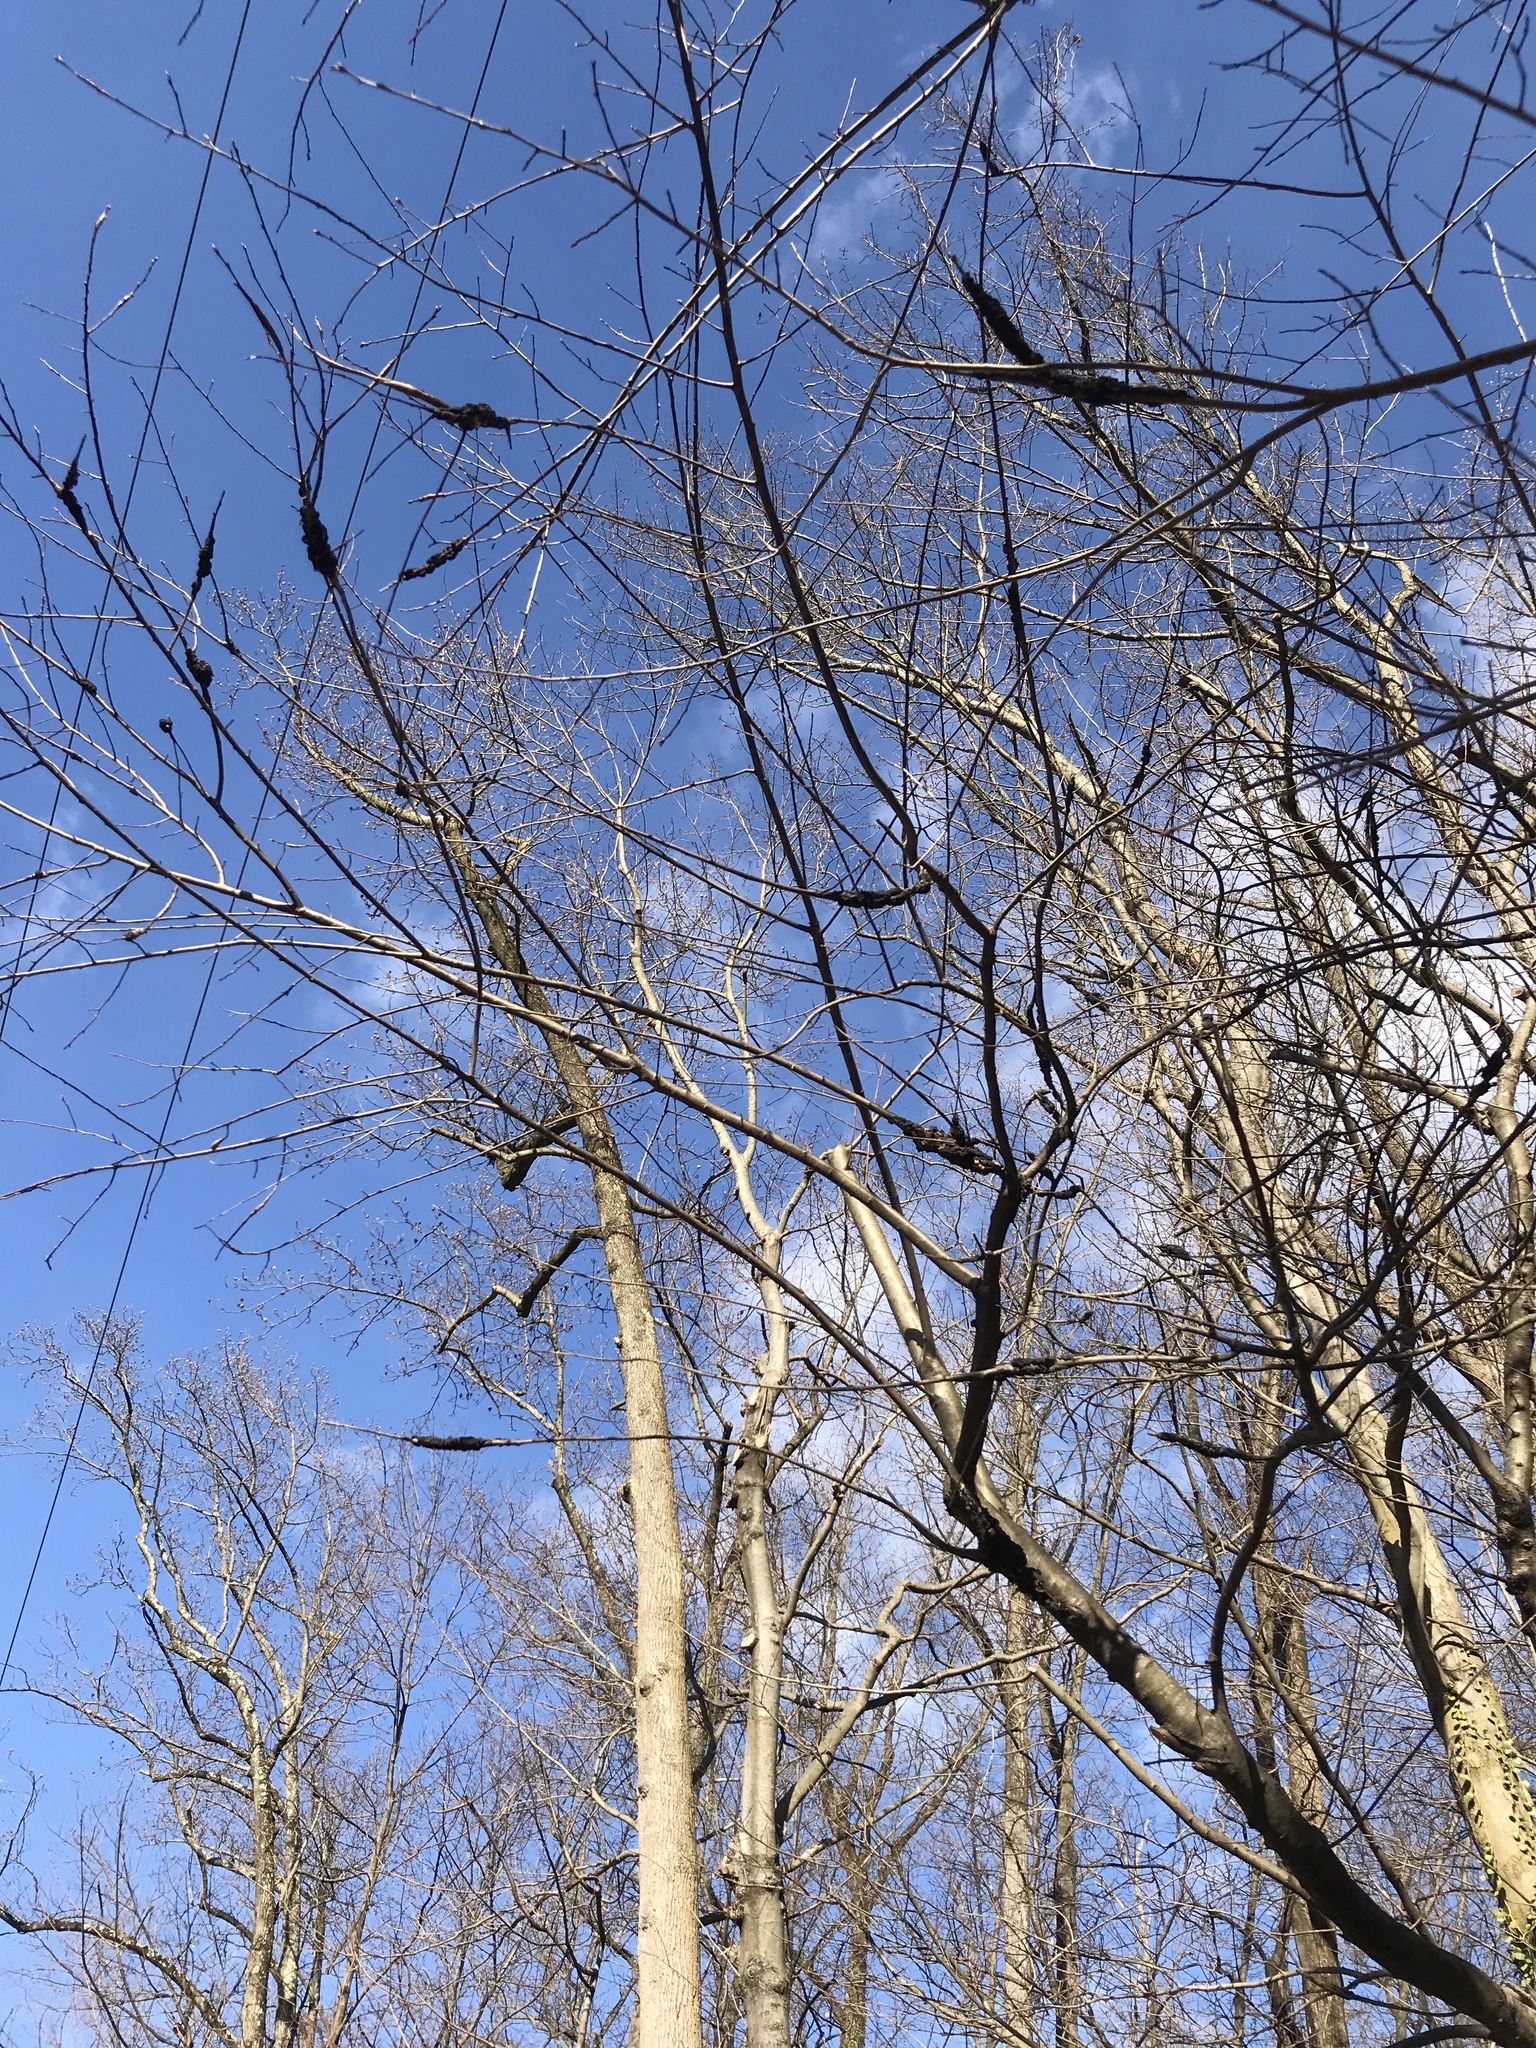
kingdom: Fungi
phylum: Ascomycota
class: Dothideomycetes
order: Venturiales
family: Venturiaceae
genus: Apiosporina
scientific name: Apiosporina morbosa
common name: Black knot
